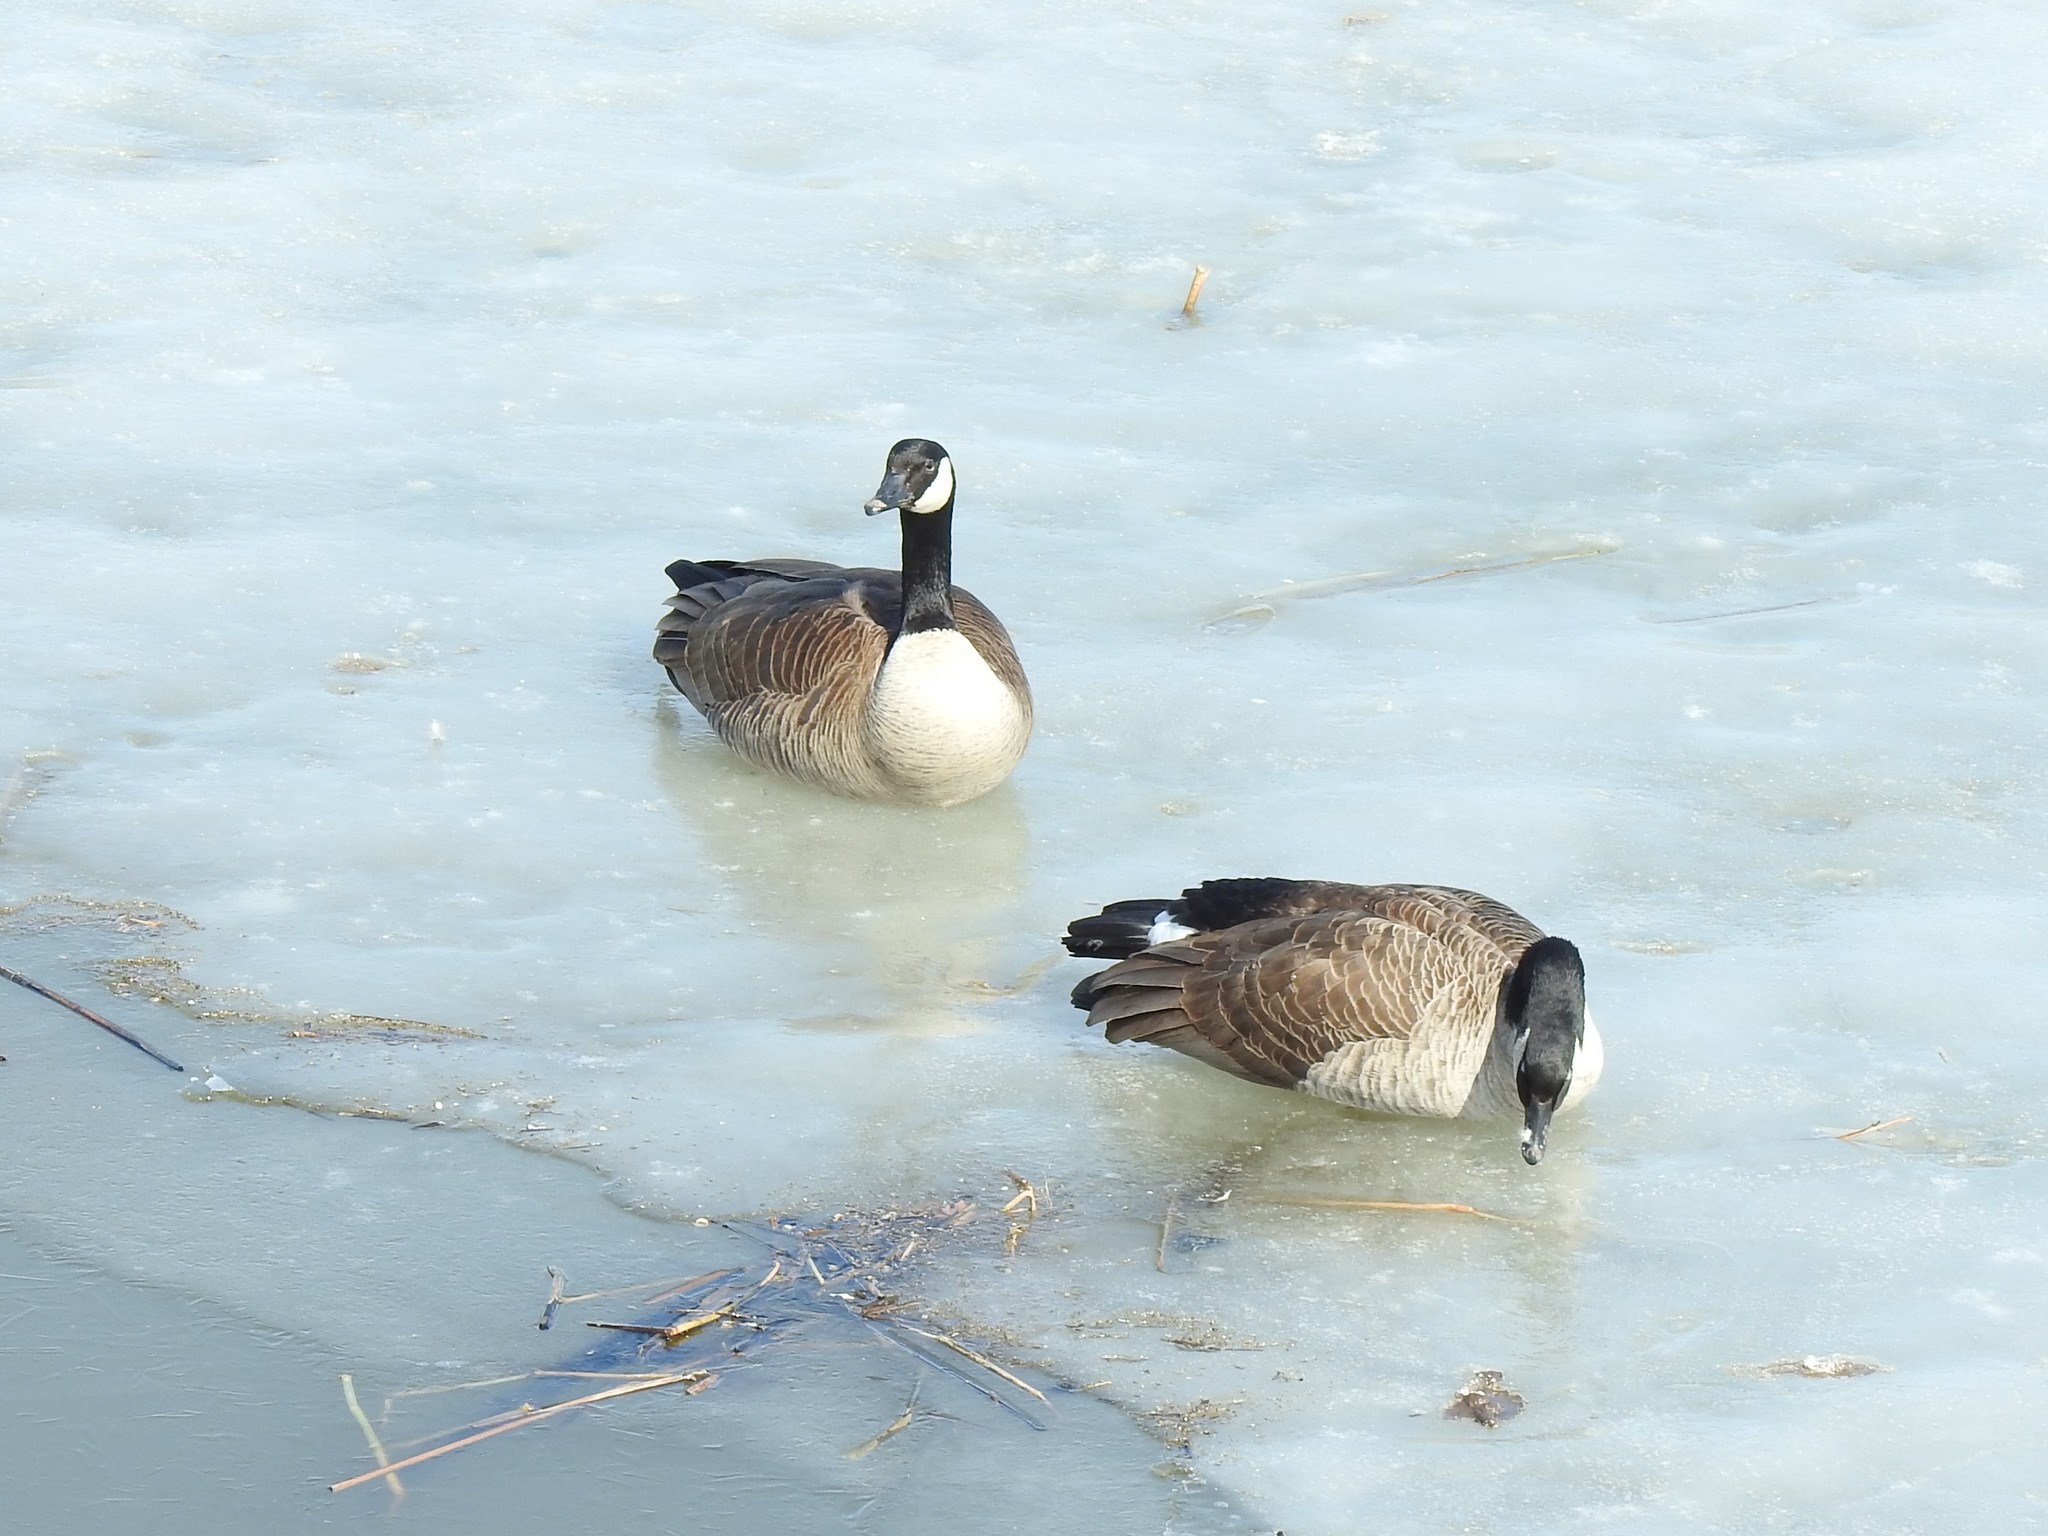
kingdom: Animalia
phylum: Chordata
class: Aves
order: Anseriformes
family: Anatidae
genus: Branta
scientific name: Branta canadensis
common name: Canada goose
